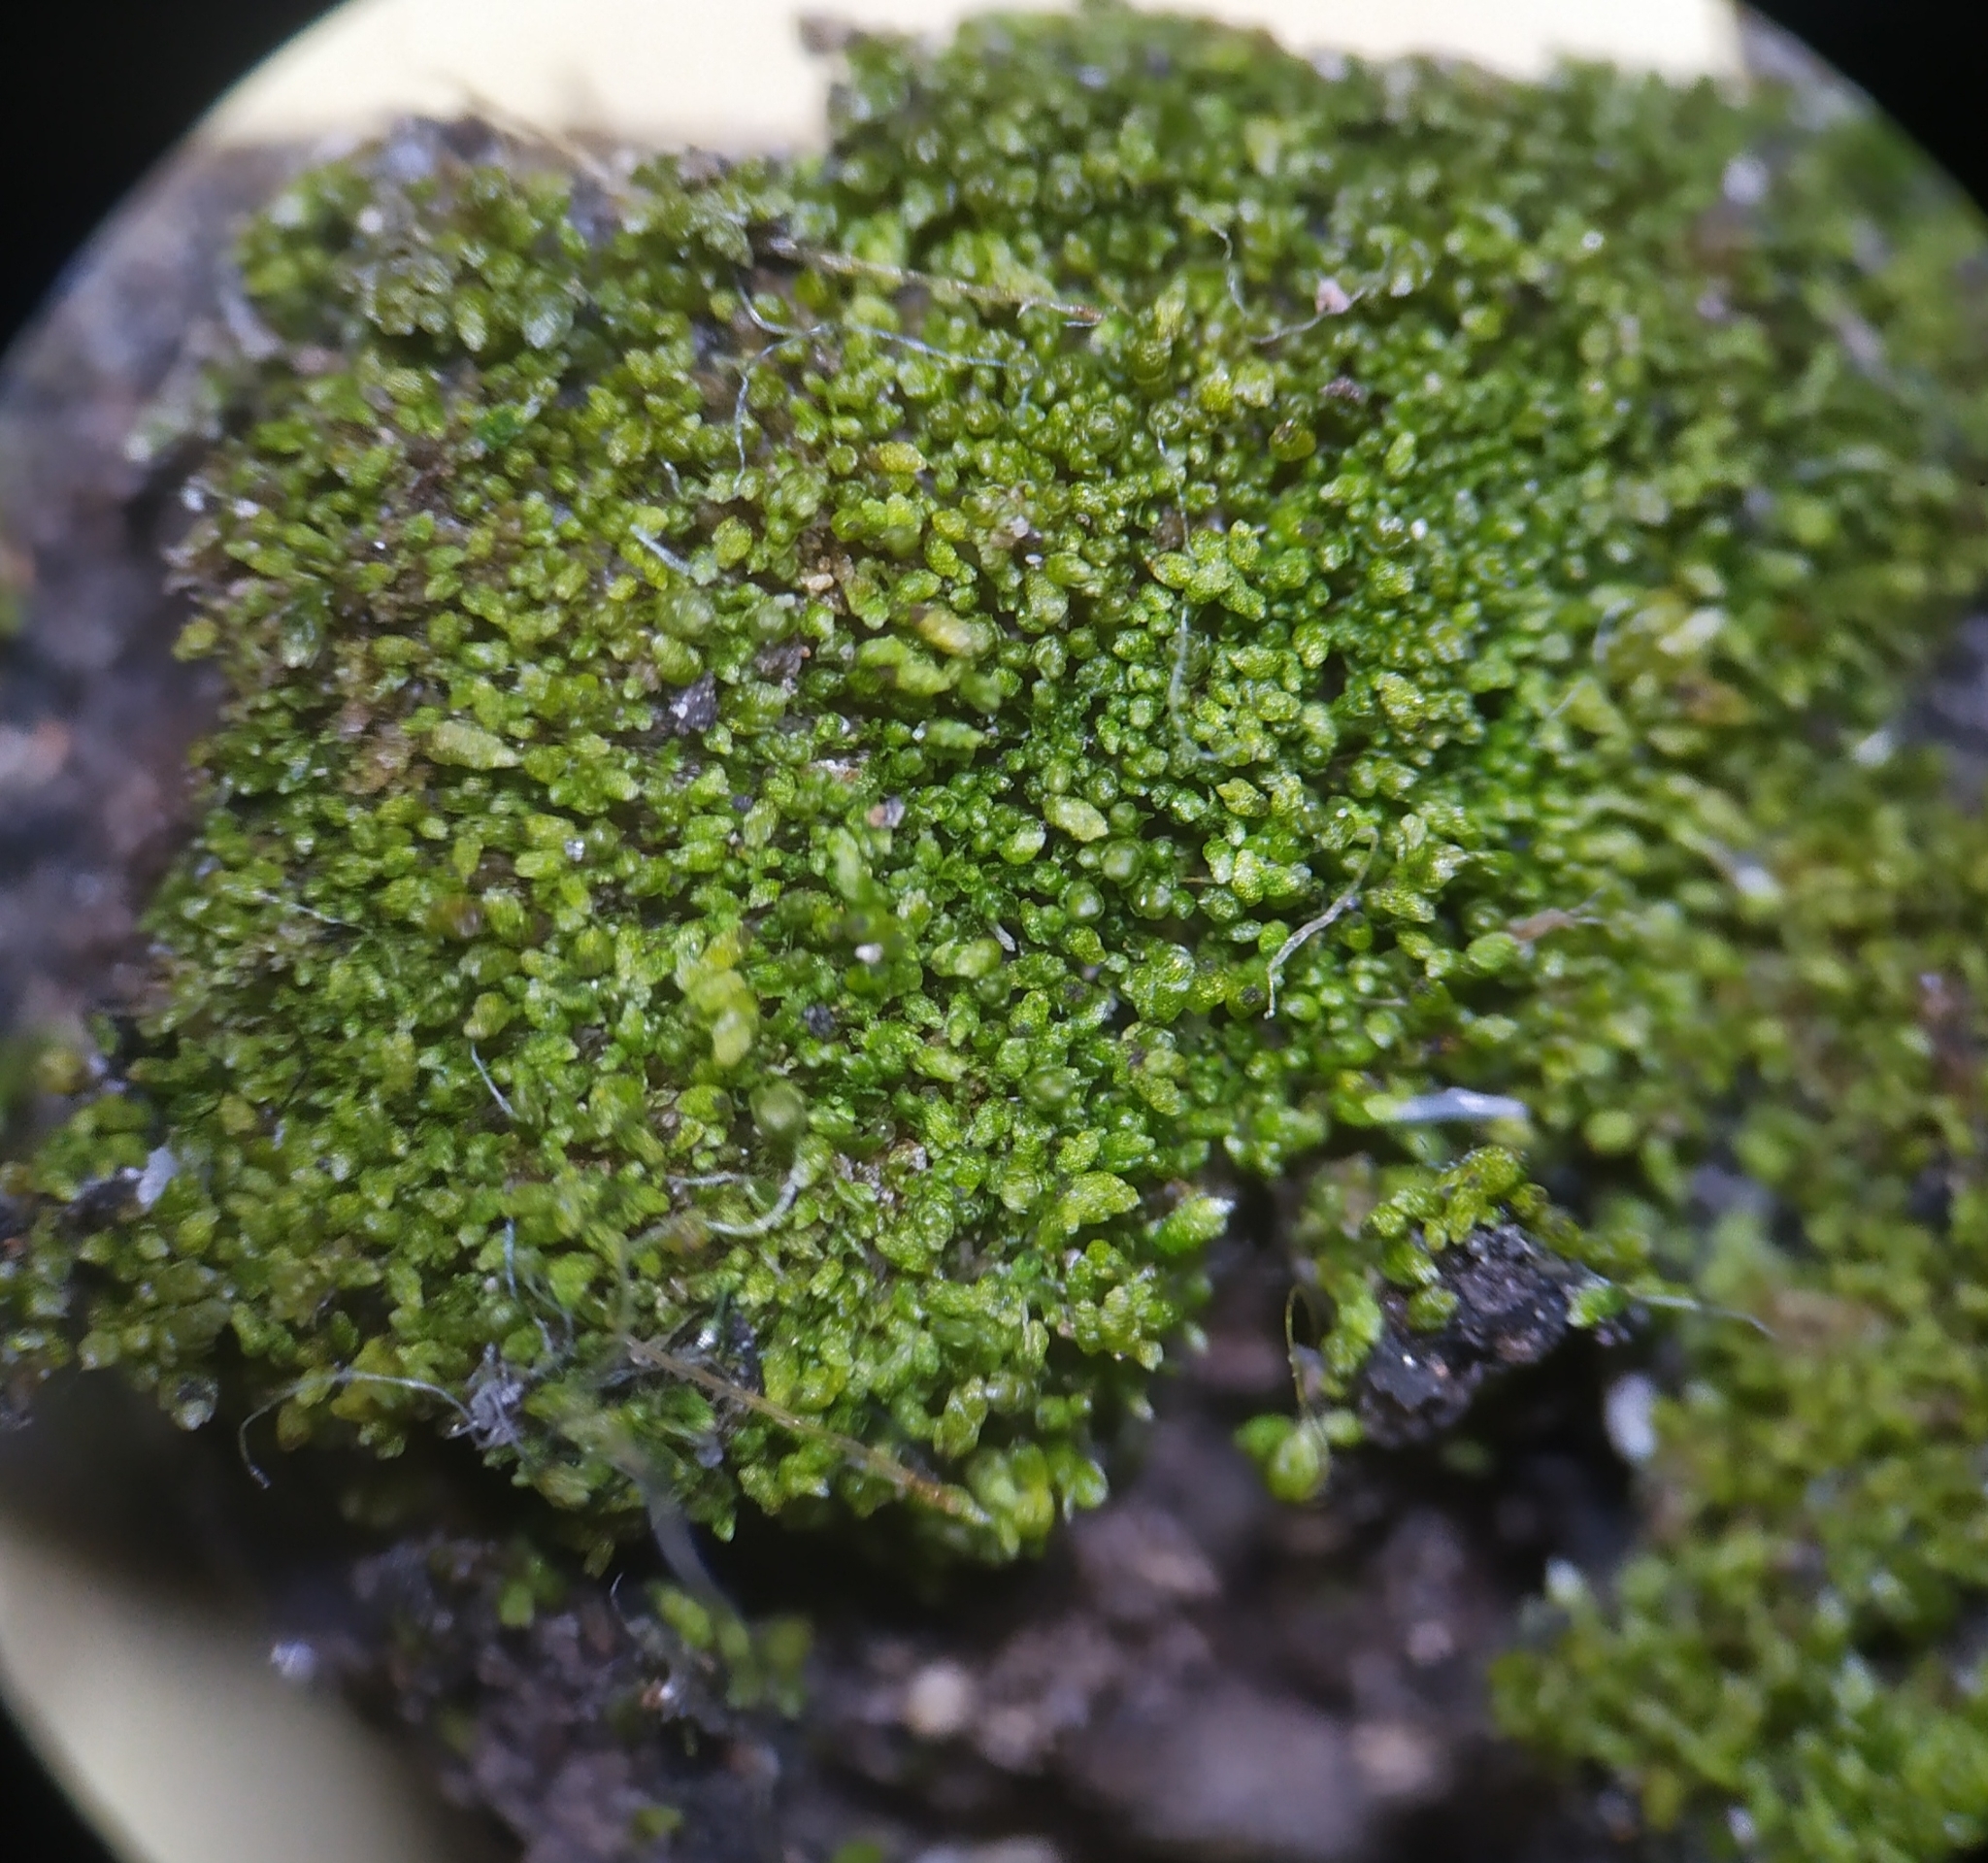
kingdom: Plantae
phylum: Bryophyta
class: Bryopsida
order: Bryales
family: Bryaceae
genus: Bryum
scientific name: Bryum argenteum
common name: Silver-moss
